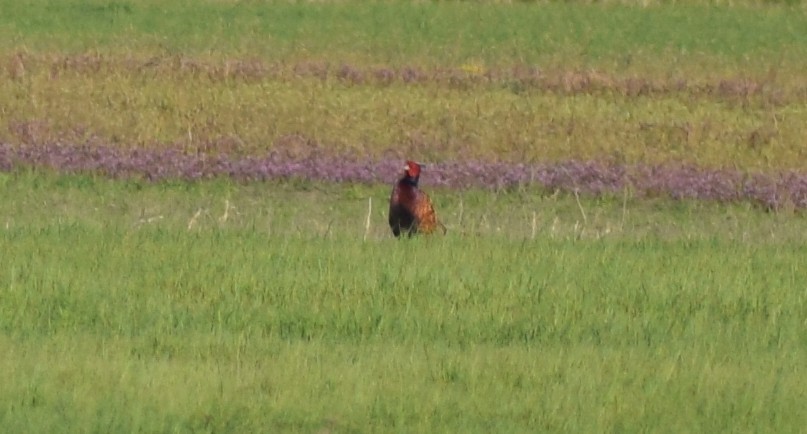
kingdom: Animalia
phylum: Chordata
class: Aves
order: Galliformes
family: Phasianidae
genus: Phasianus
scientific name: Phasianus colchicus
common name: Common pheasant
